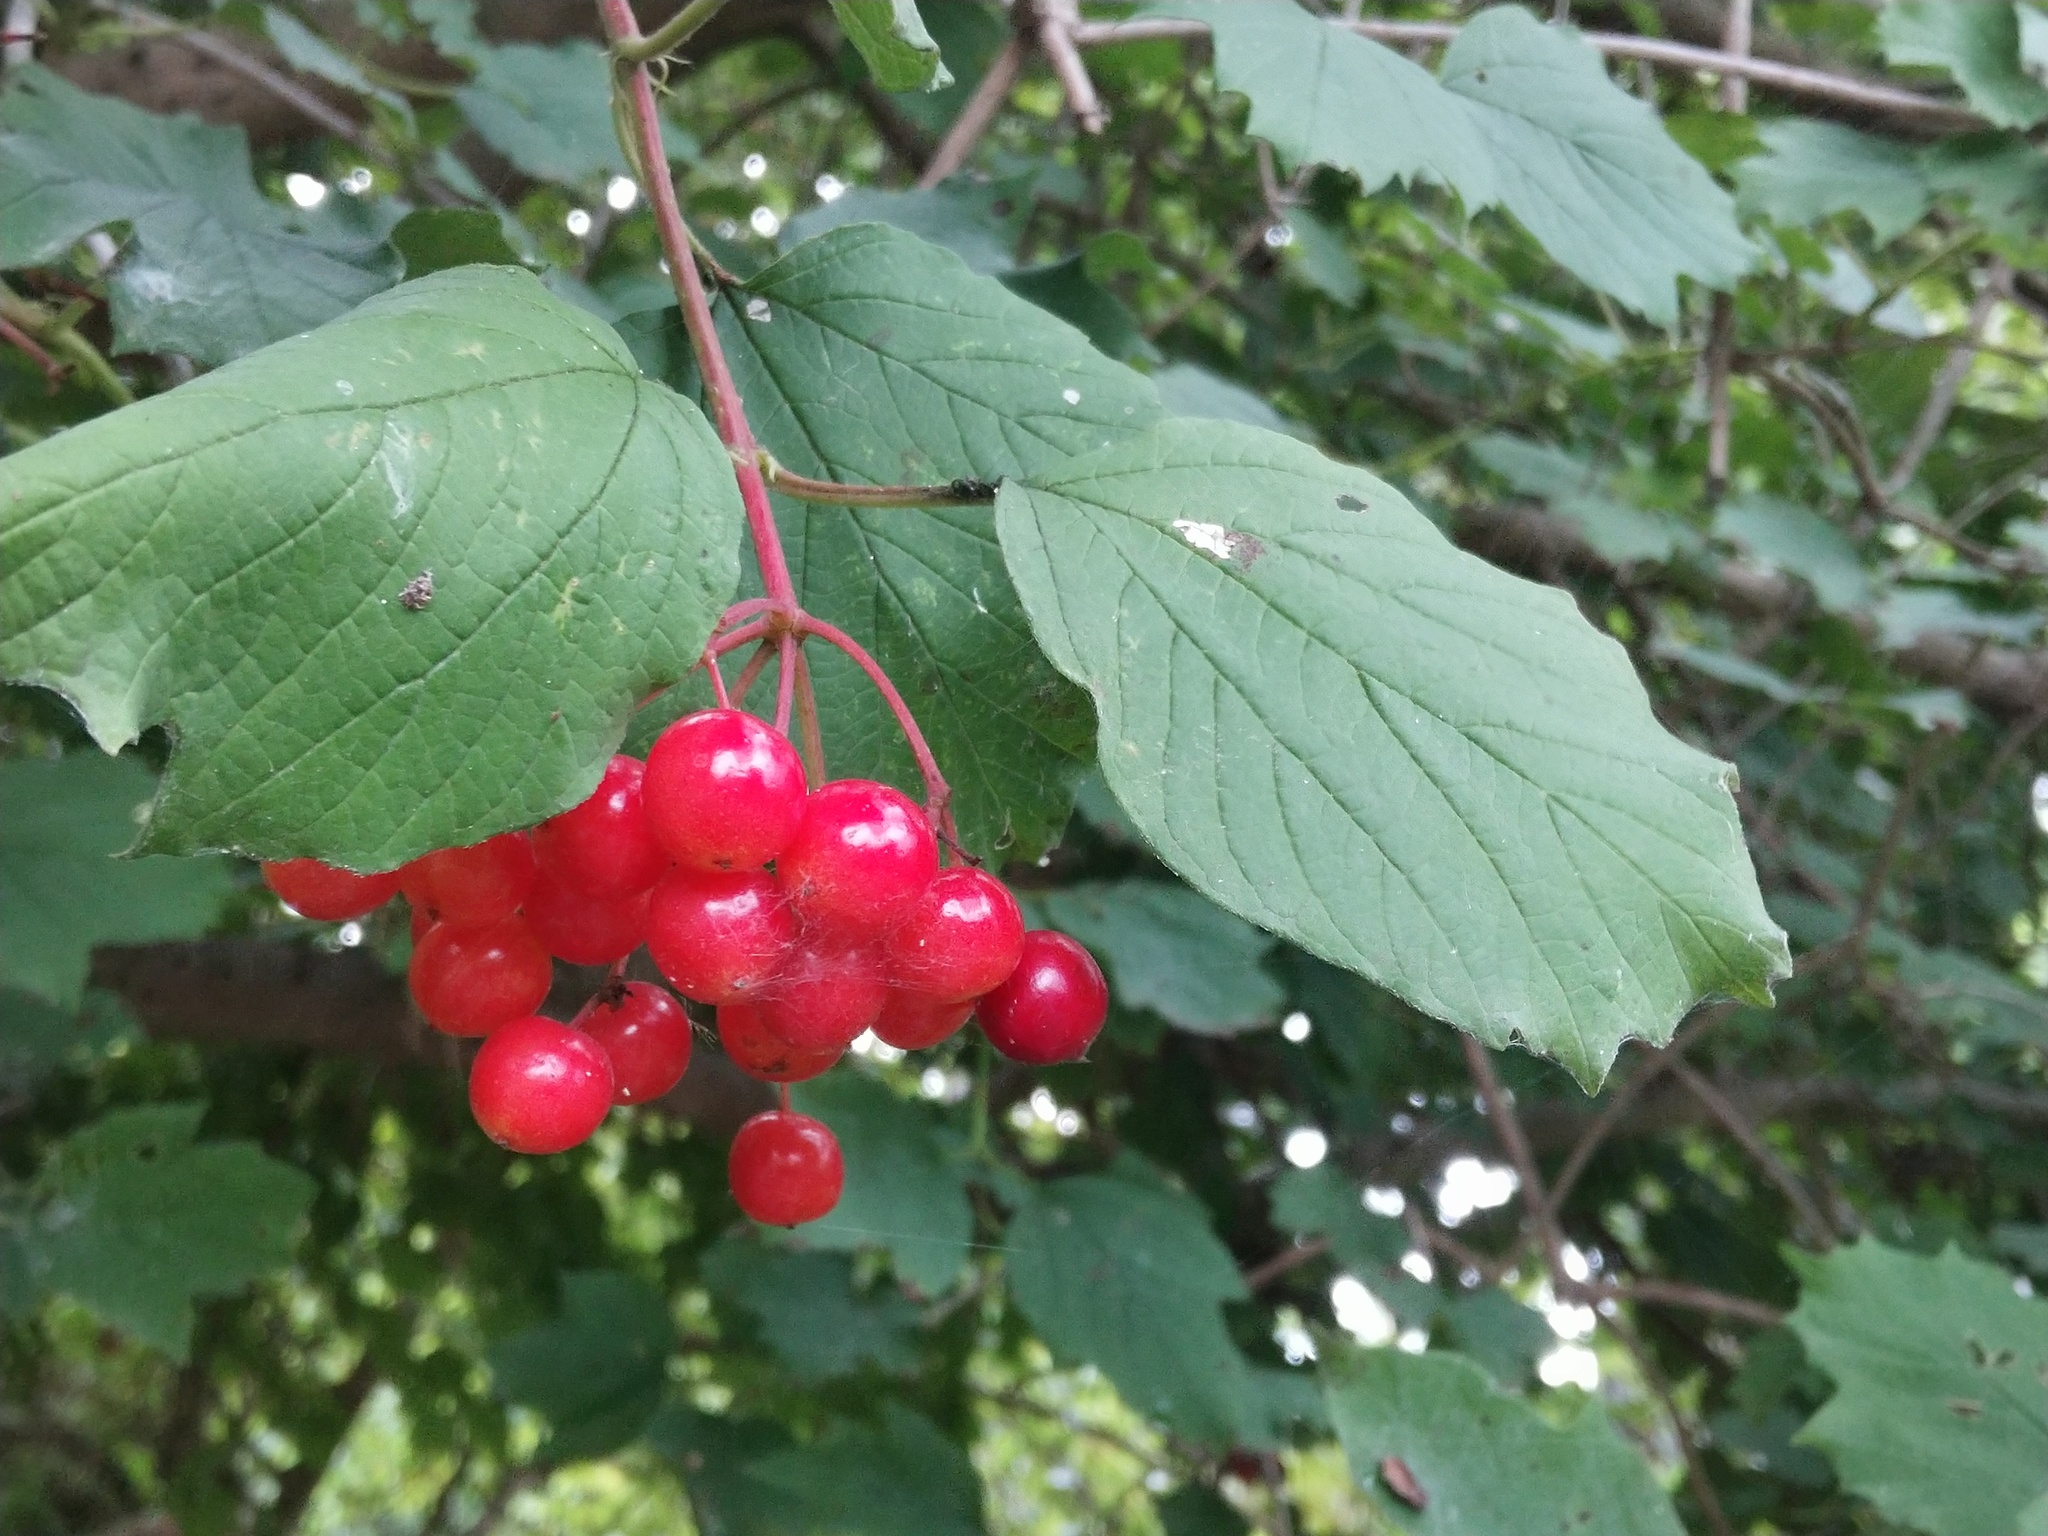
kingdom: Plantae
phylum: Tracheophyta
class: Magnoliopsida
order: Dipsacales
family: Viburnaceae
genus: Viburnum
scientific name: Viburnum opulus
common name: Guelder-rose
